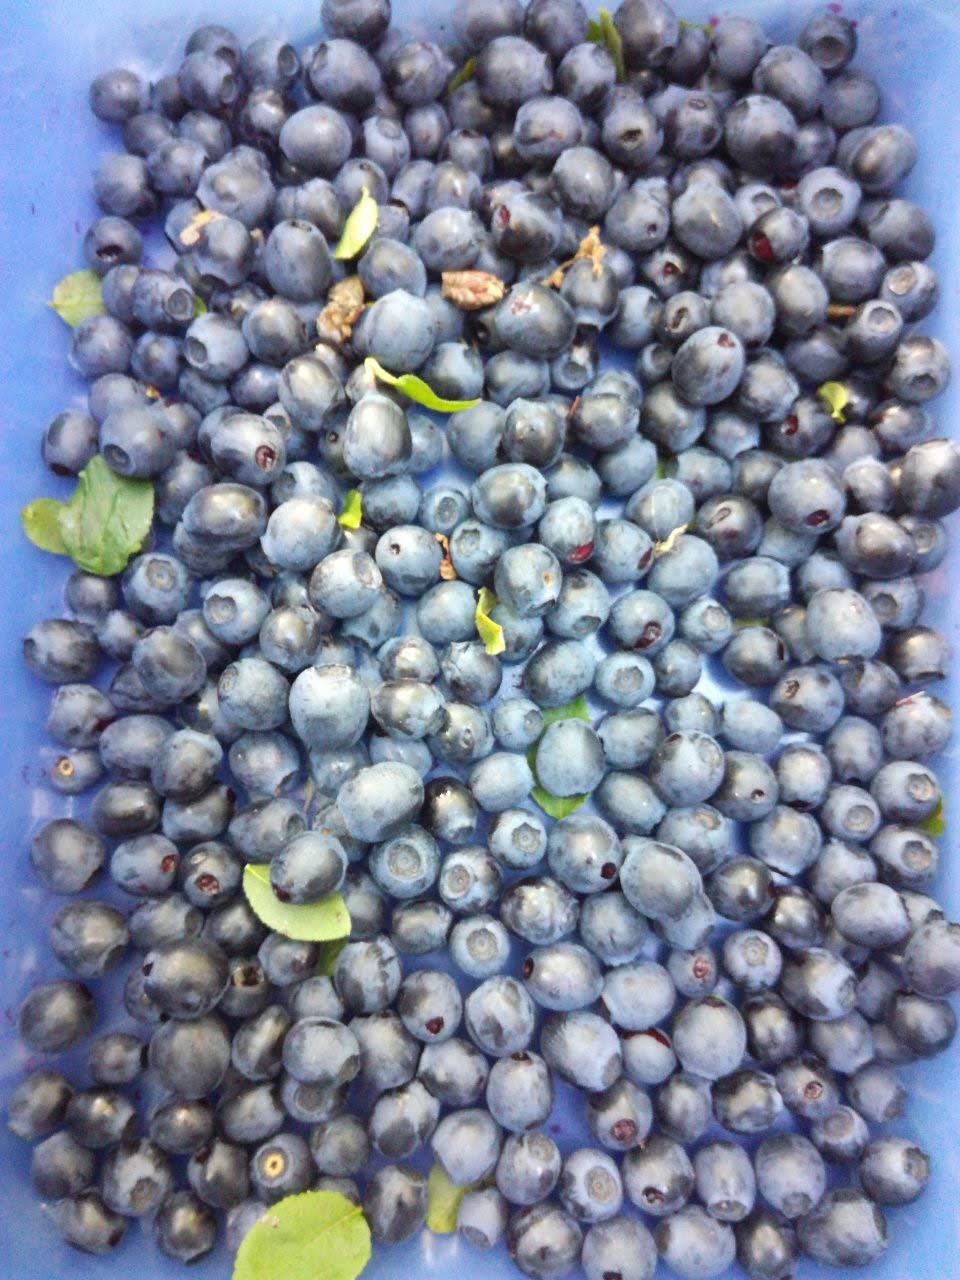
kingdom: Plantae
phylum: Tracheophyta
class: Magnoliopsida
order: Ericales
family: Ericaceae
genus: Vaccinium
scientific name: Vaccinium myrtillus
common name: Bilberry
